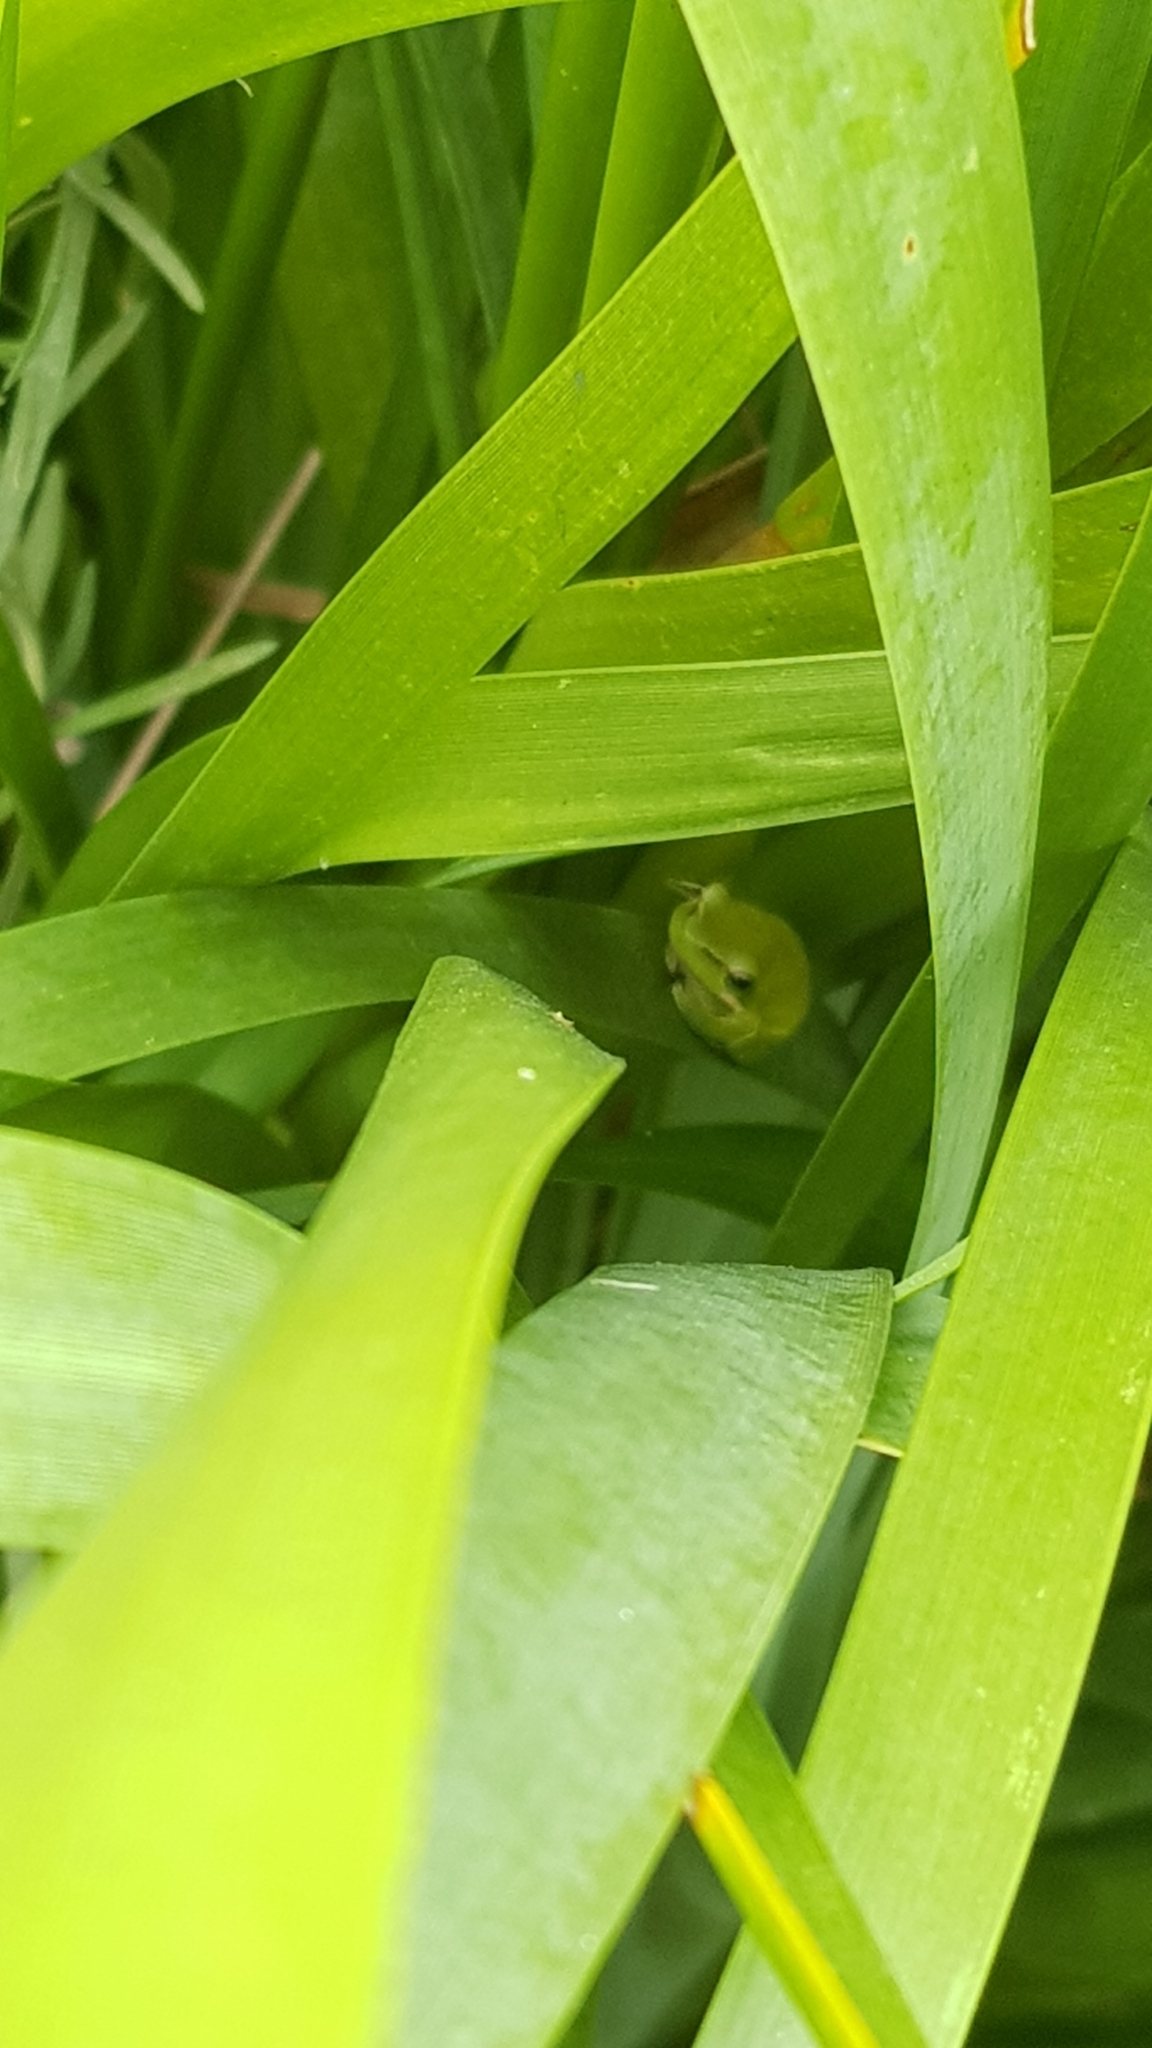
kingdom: Animalia
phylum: Chordata
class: Amphibia
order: Anura
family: Pelodryadidae
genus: Litoria
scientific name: Litoria fallax
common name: Eastern dwarf treefrog
